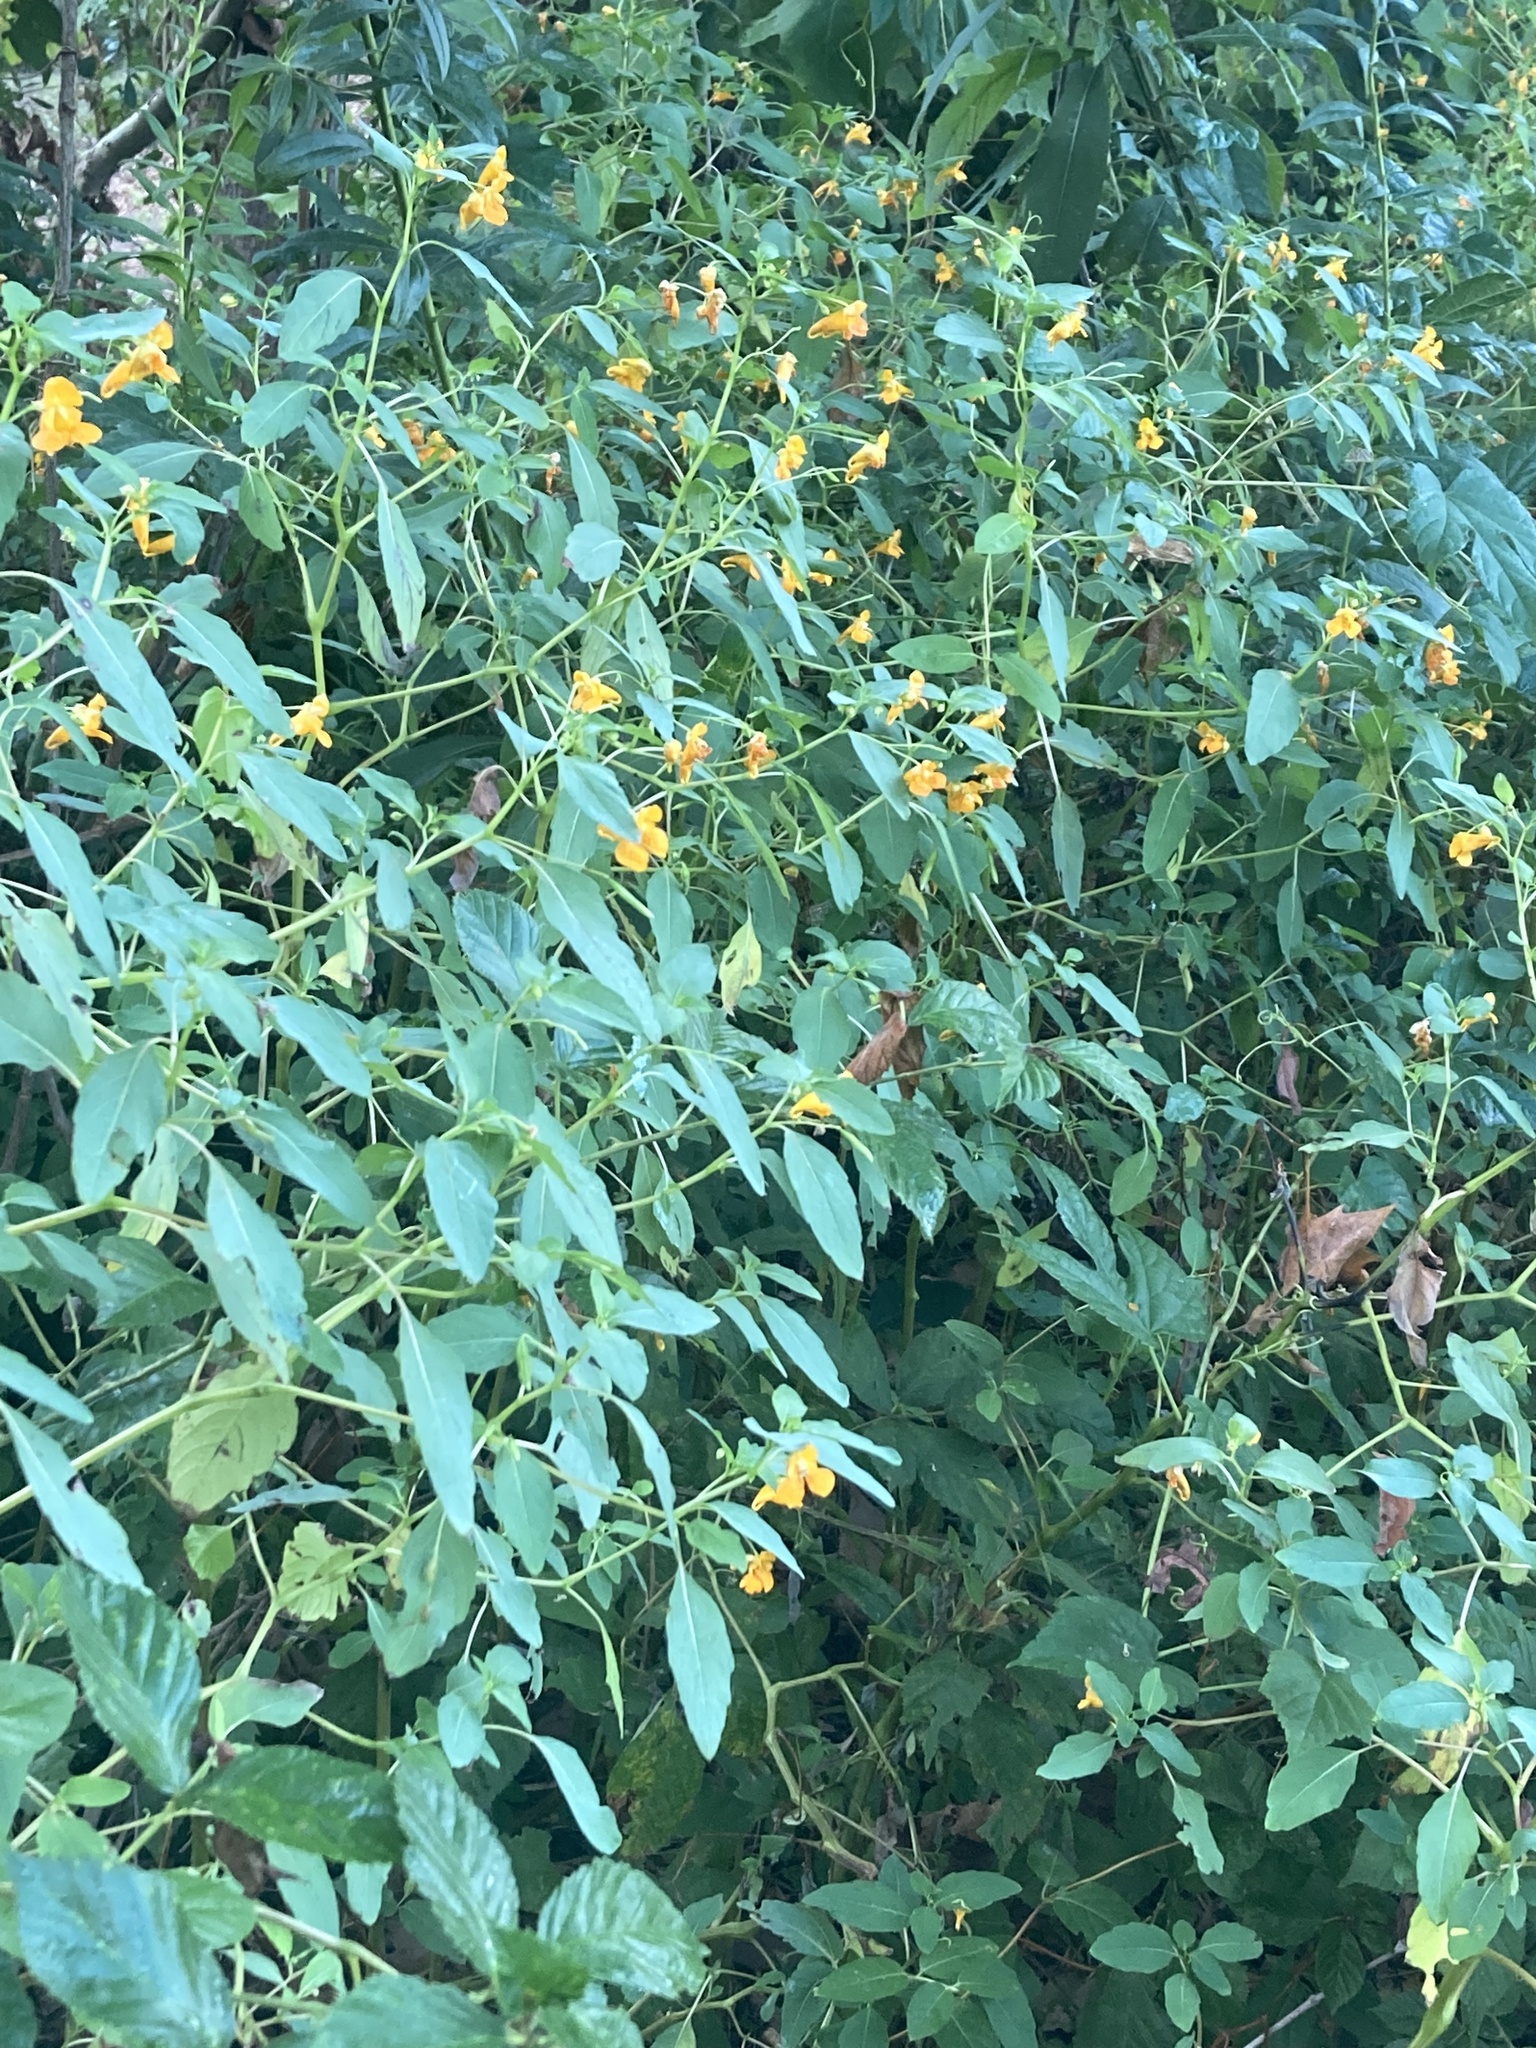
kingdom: Plantae
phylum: Tracheophyta
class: Magnoliopsida
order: Ericales
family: Balsaminaceae
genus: Impatiens
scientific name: Impatiens capensis
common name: Orange balsam
